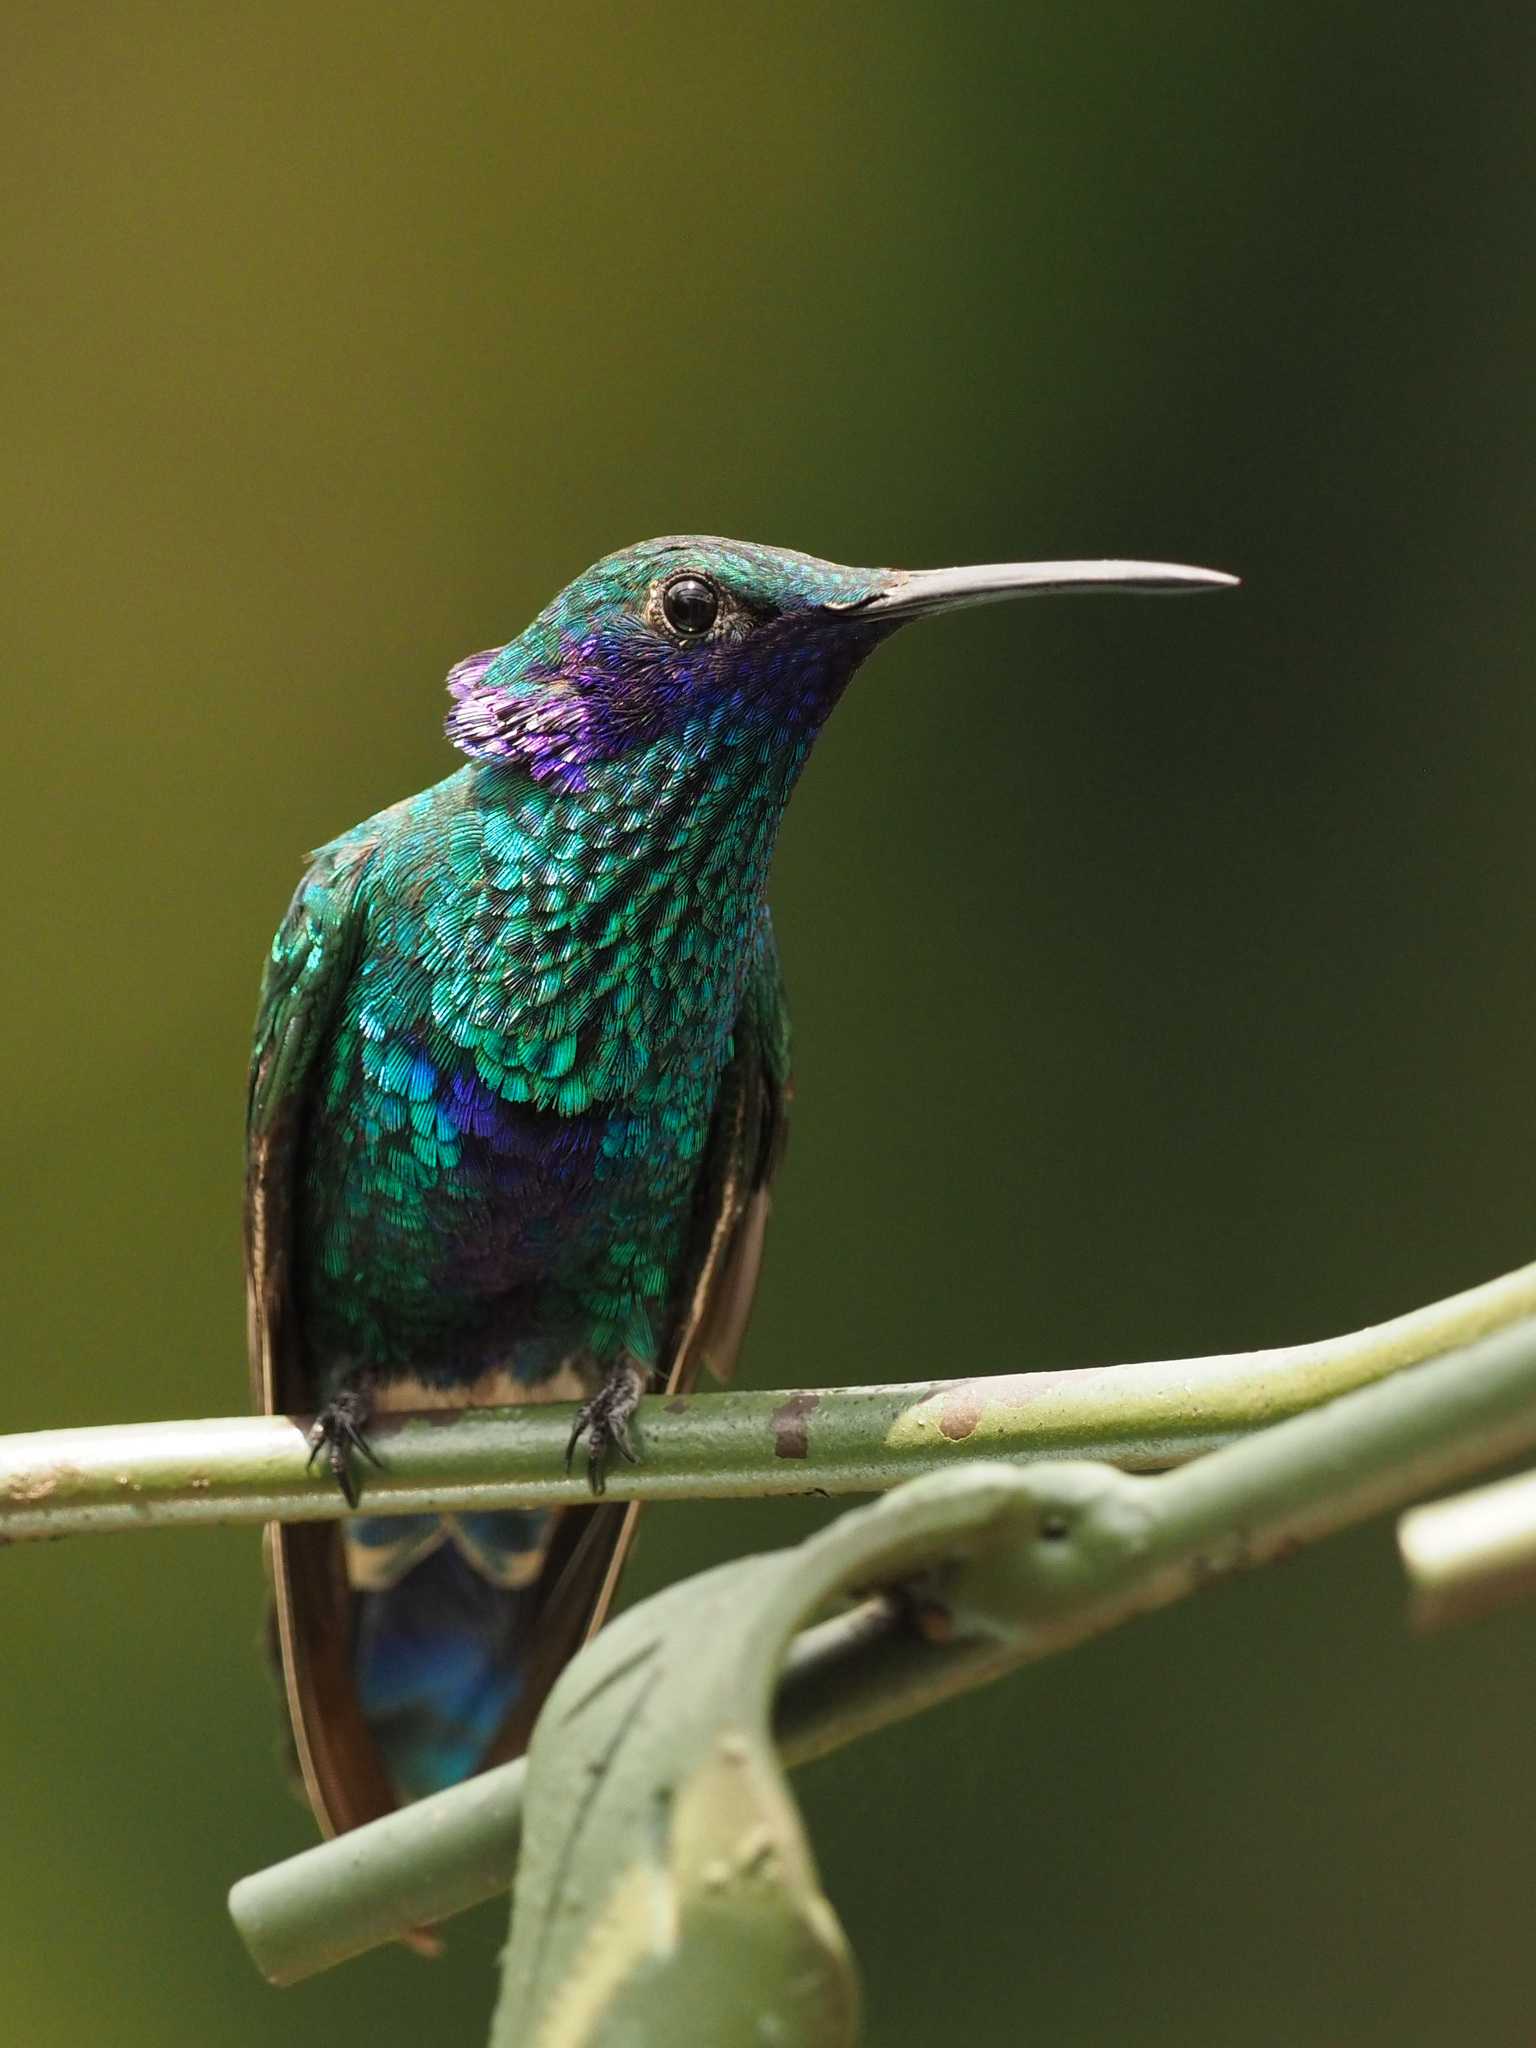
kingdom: Animalia
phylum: Chordata
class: Aves
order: Apodiformes
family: Trochilidae
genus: Colibri
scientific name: Colibri coruscans
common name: Sparkling violetear
